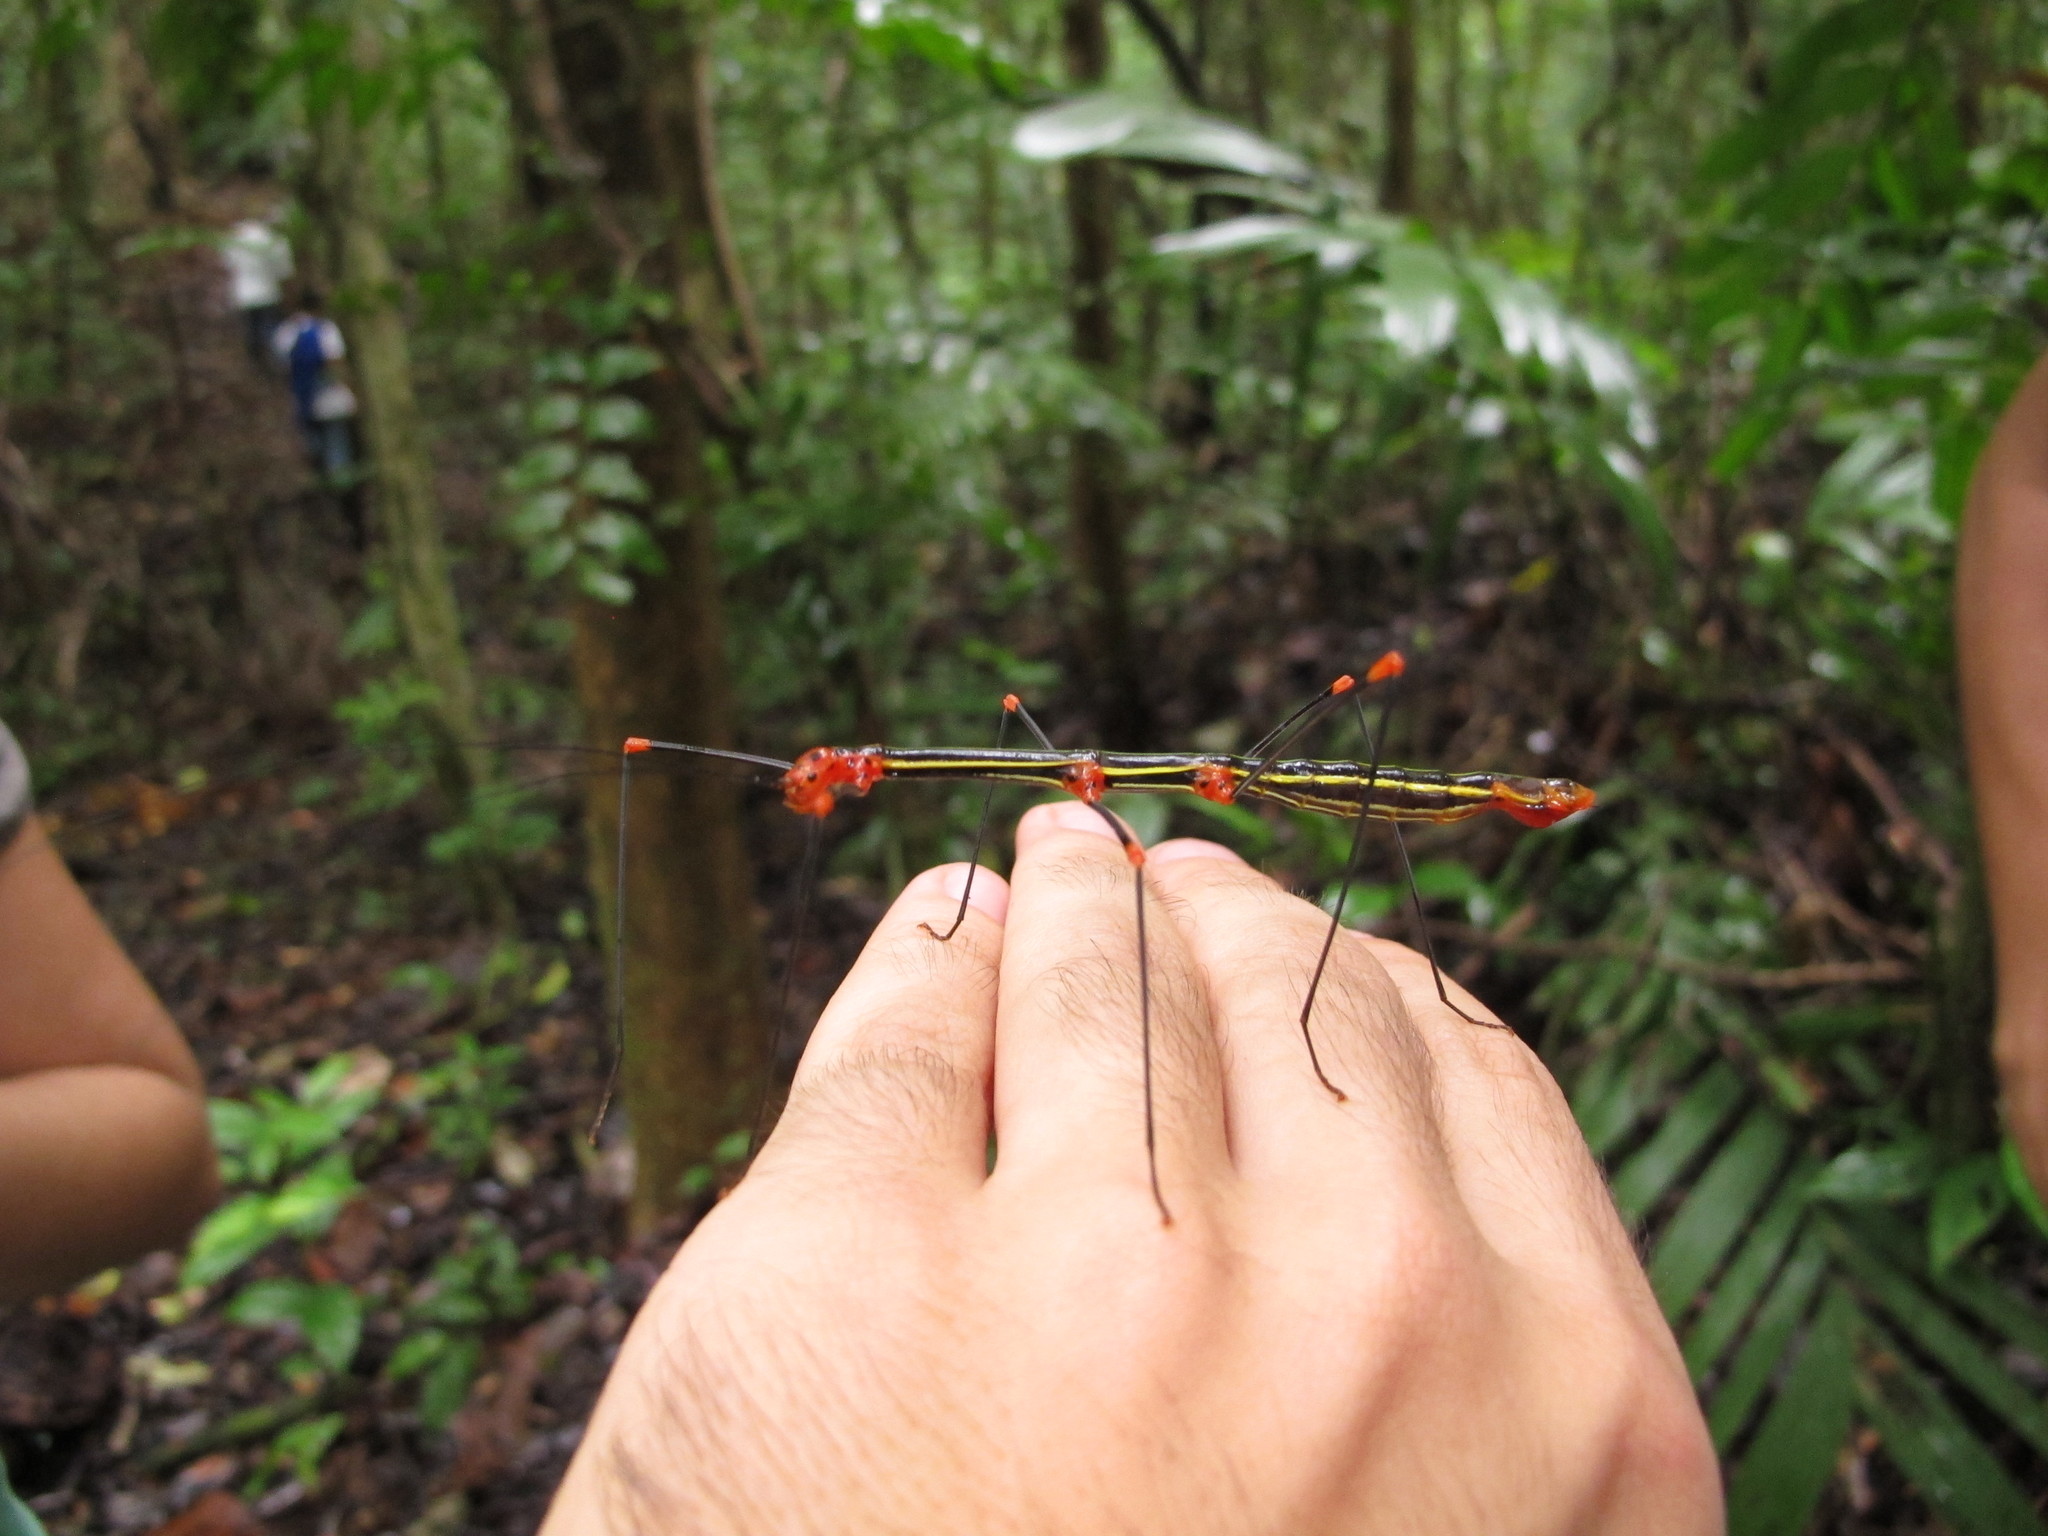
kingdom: Animalia
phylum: Arthropoda
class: Insecta
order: Phasmida
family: Diapheromeridae
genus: Oreophoetes
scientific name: Oreophoetes peruana
